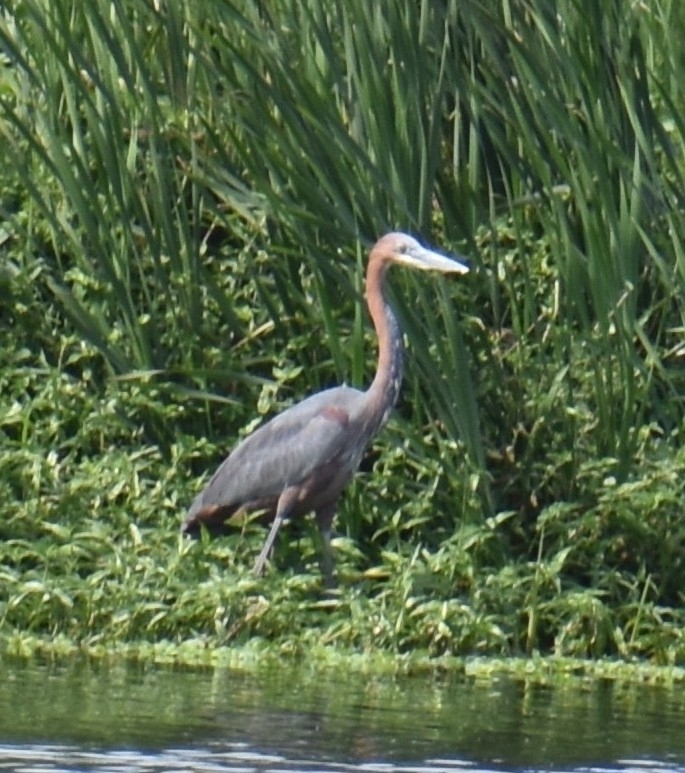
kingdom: Animalia
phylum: Chordata
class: Aves
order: Pelecaniformes
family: Ardeidae
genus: Ardea
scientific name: Ardea goliath
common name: Goliath heron
